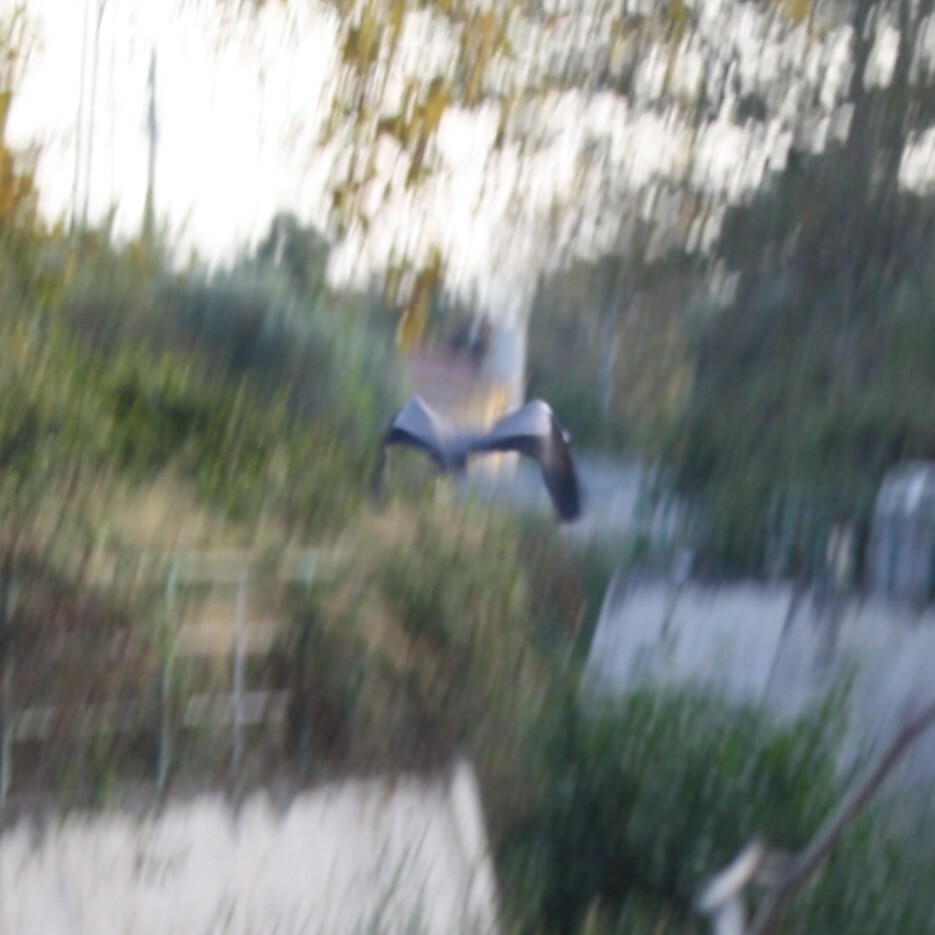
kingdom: Animalia
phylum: Chordata
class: Aves
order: Pelecaniformes
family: Ardeidae
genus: Ardea
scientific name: Ardea cinerea
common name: Grey heron
